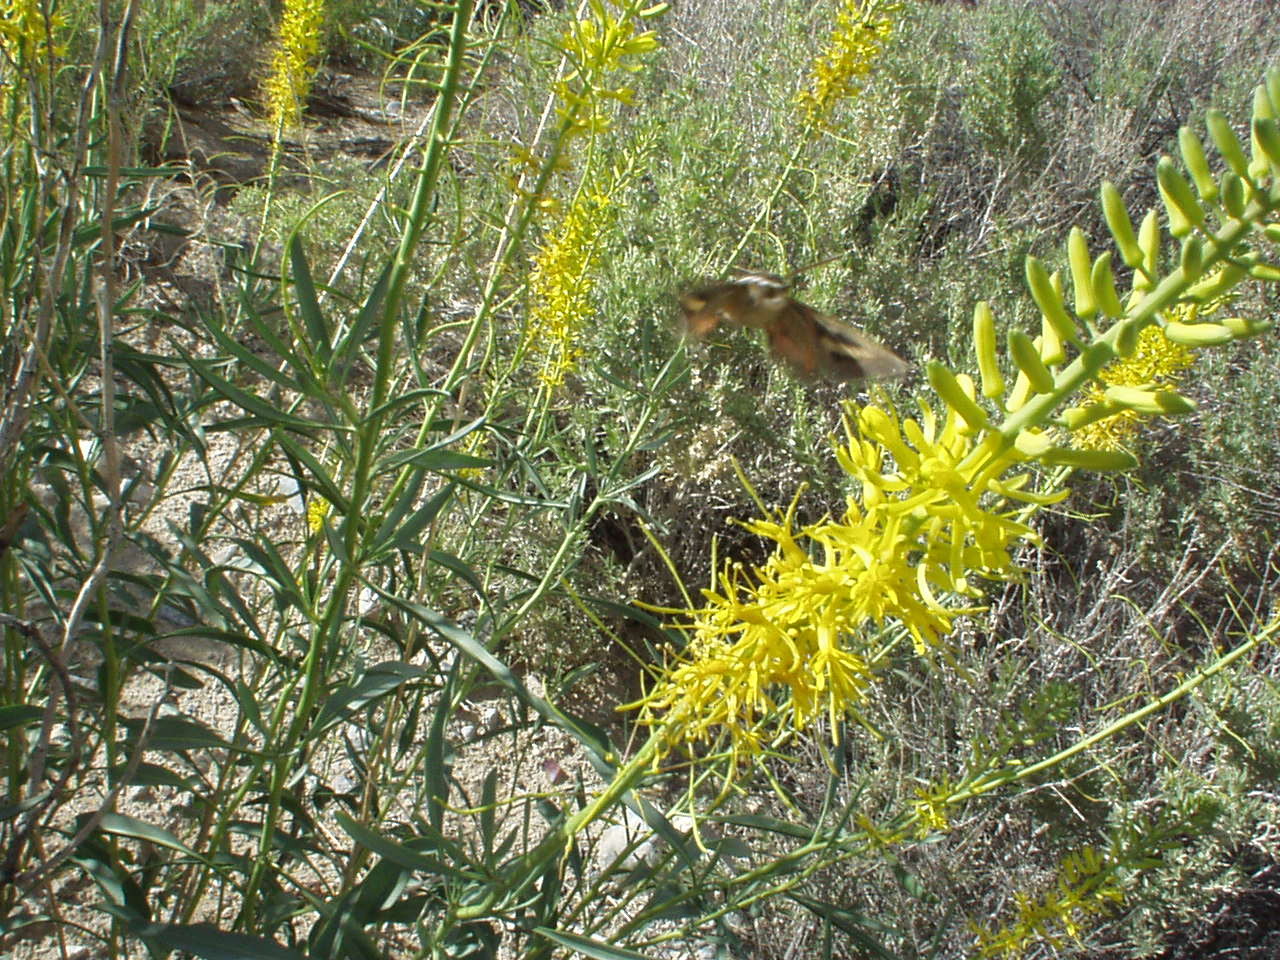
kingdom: Plantae
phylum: Tracheophyta
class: Magnoliopsida
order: Brassicales
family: Brassicaceae
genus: Stanleya
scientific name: Stanleya pinnata
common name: Prince's-plume
